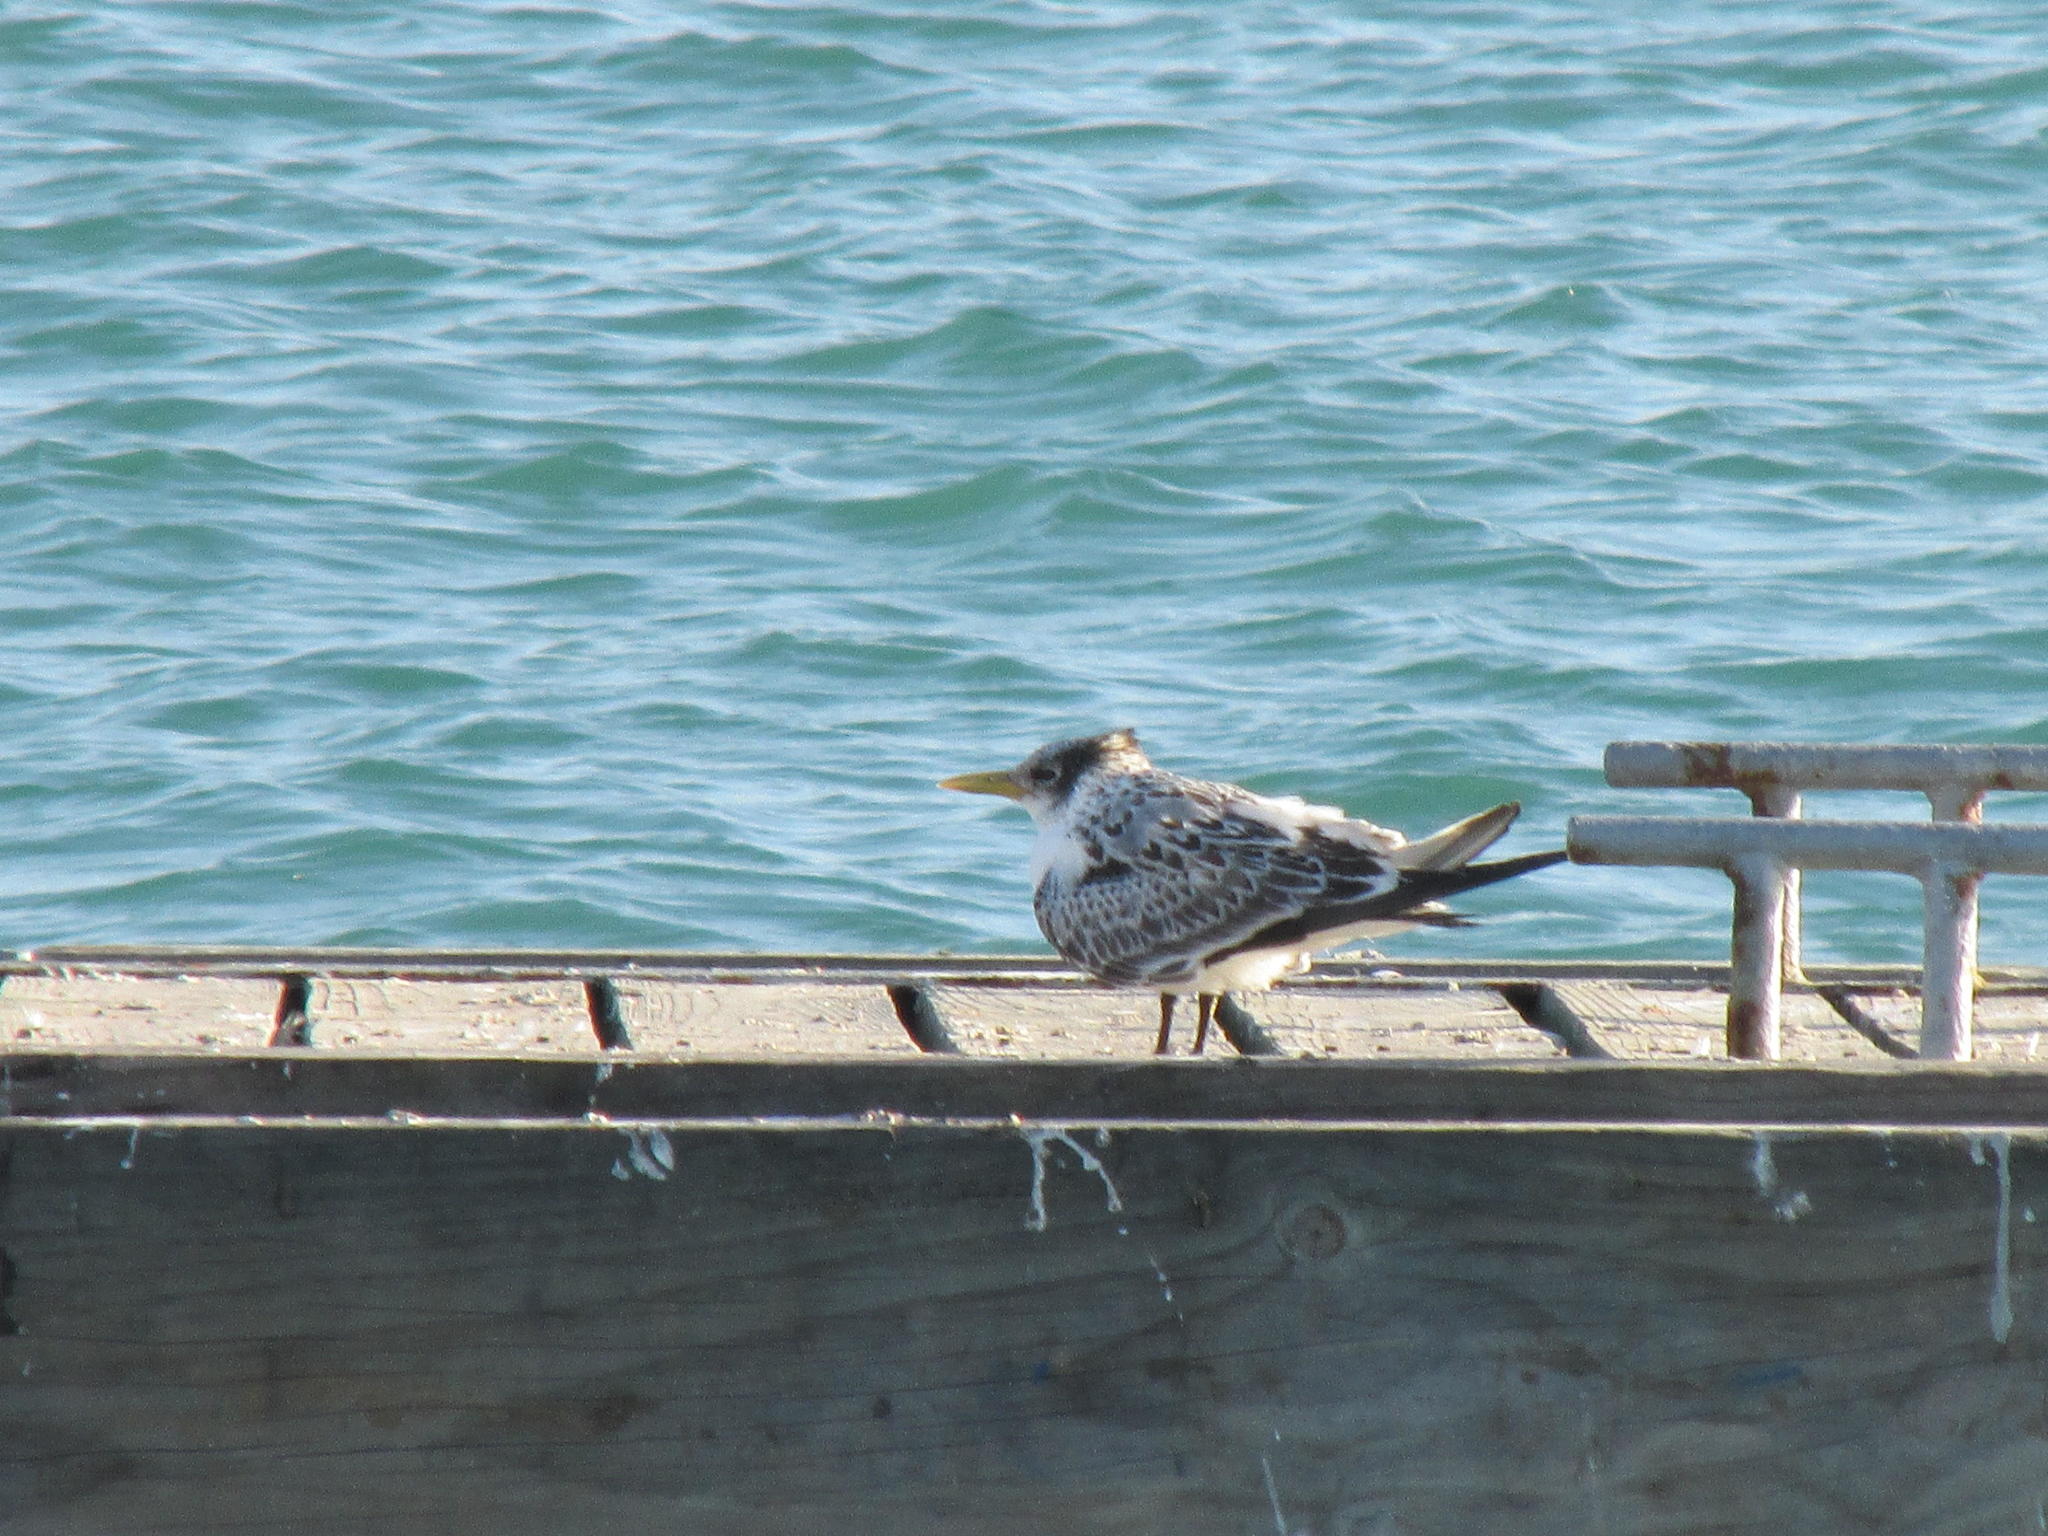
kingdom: Animalia
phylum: Chordata
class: Aves
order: Charadriiformes
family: Laridae
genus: Thalasseus
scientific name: Thalasseus bergii
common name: Greater crested tern
